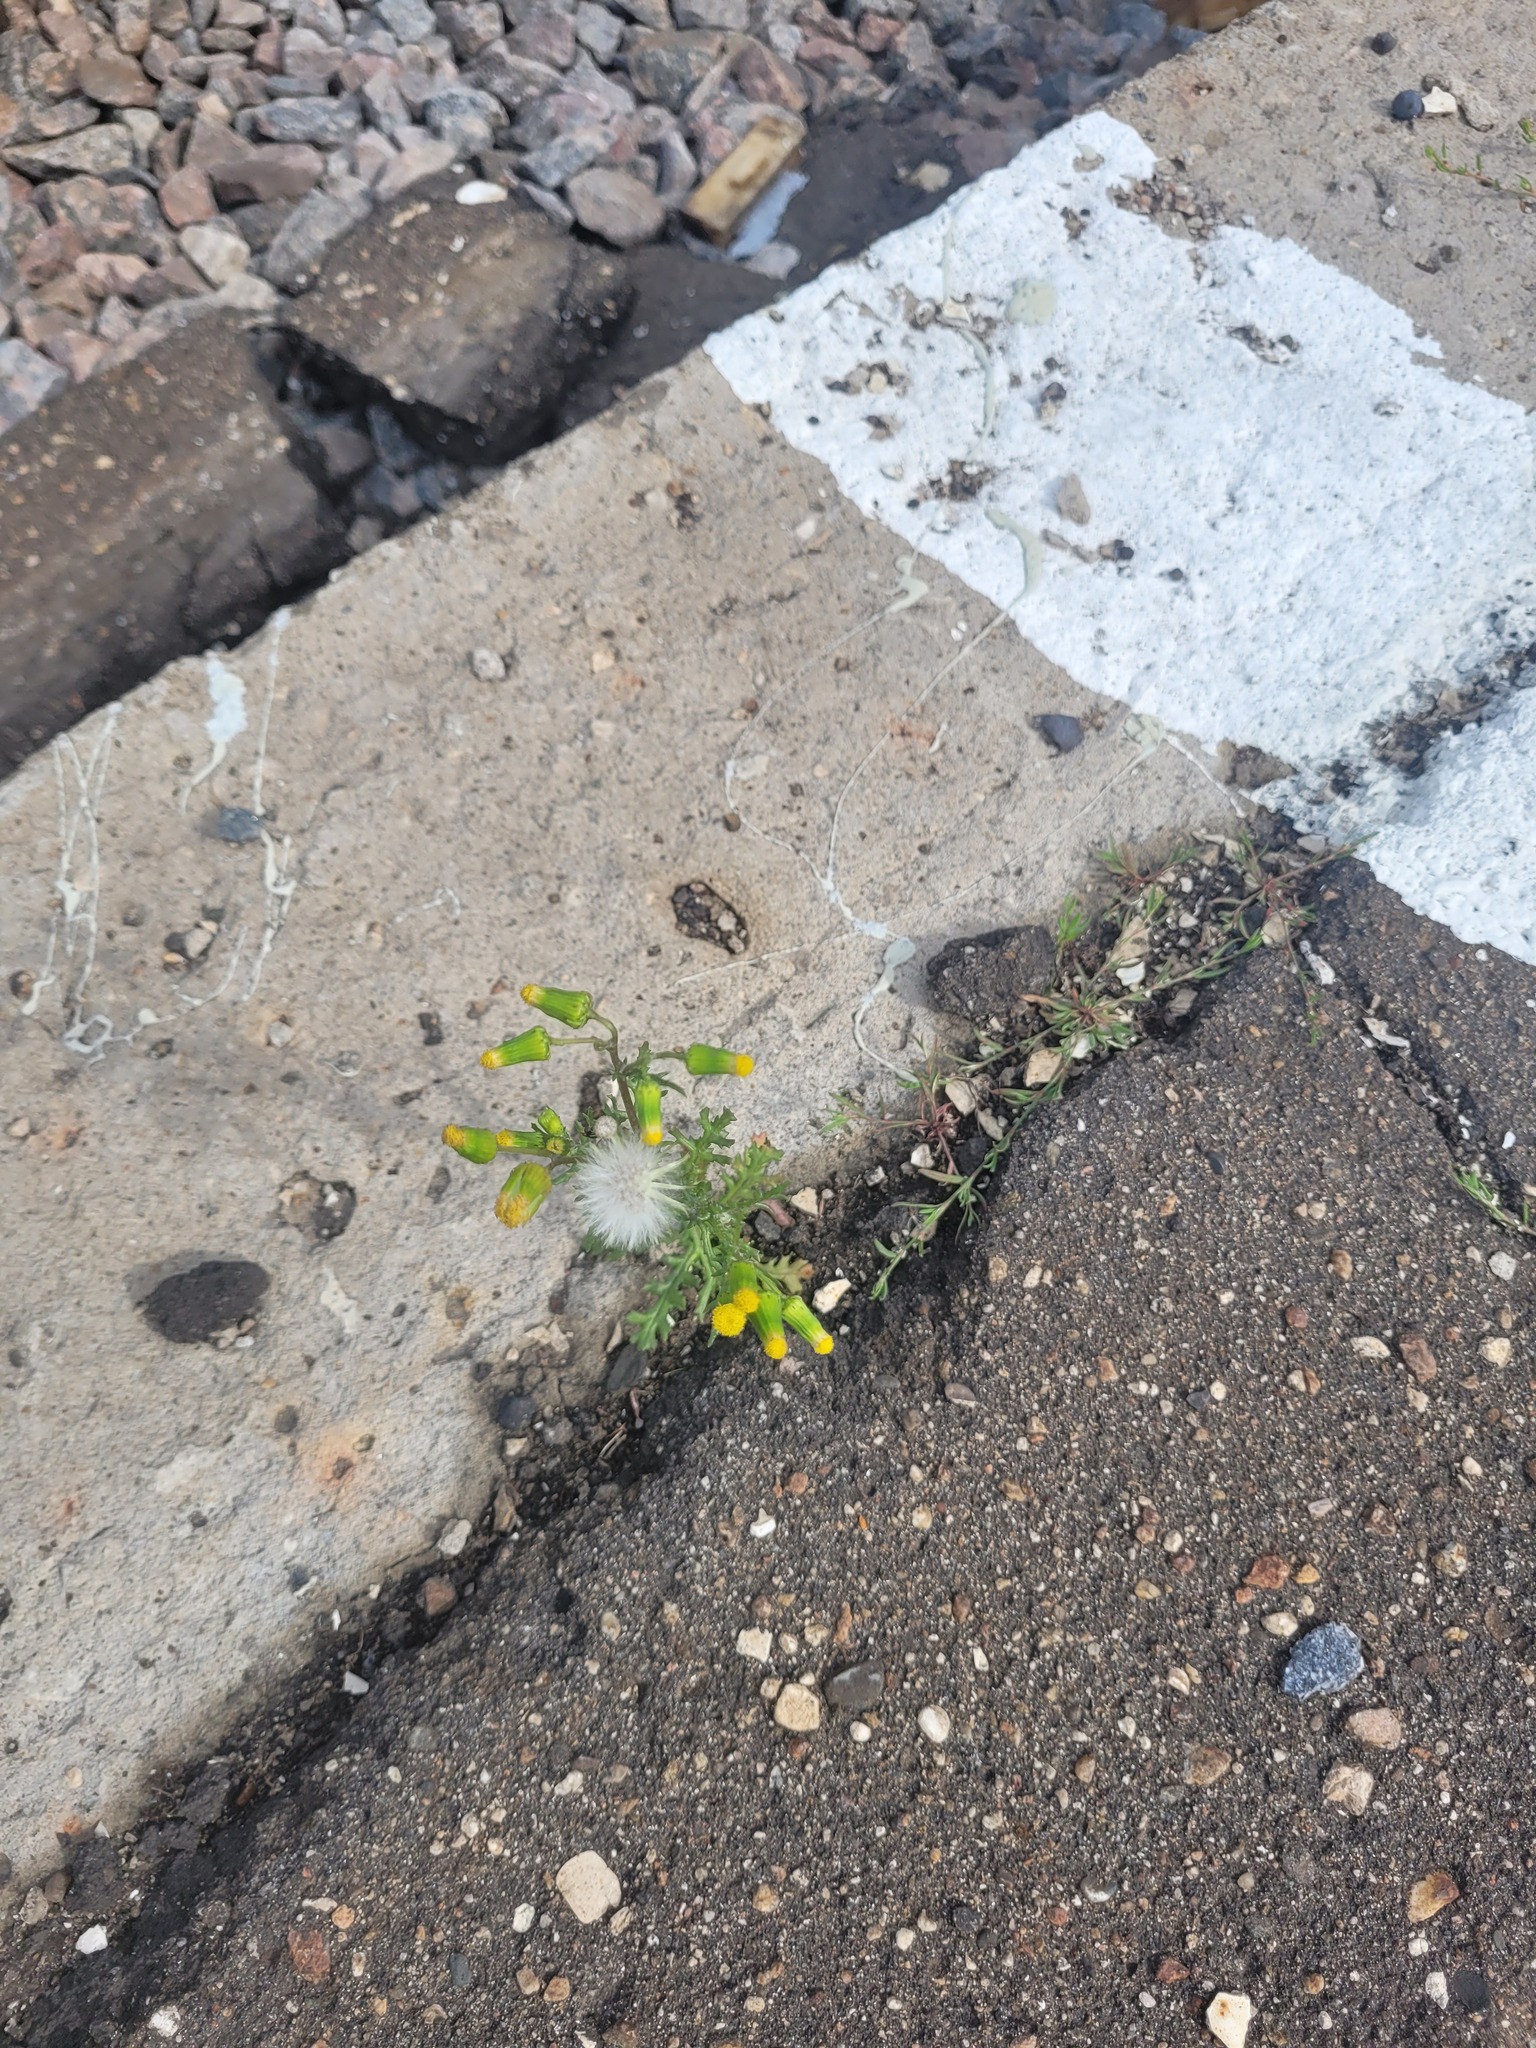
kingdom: Plantae
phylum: Tracheophyta
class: Magnoliopsida
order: Asterales
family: Asteraceae
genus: Senecio
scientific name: Senecio vulgaris
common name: Old-man-in-the-spring
